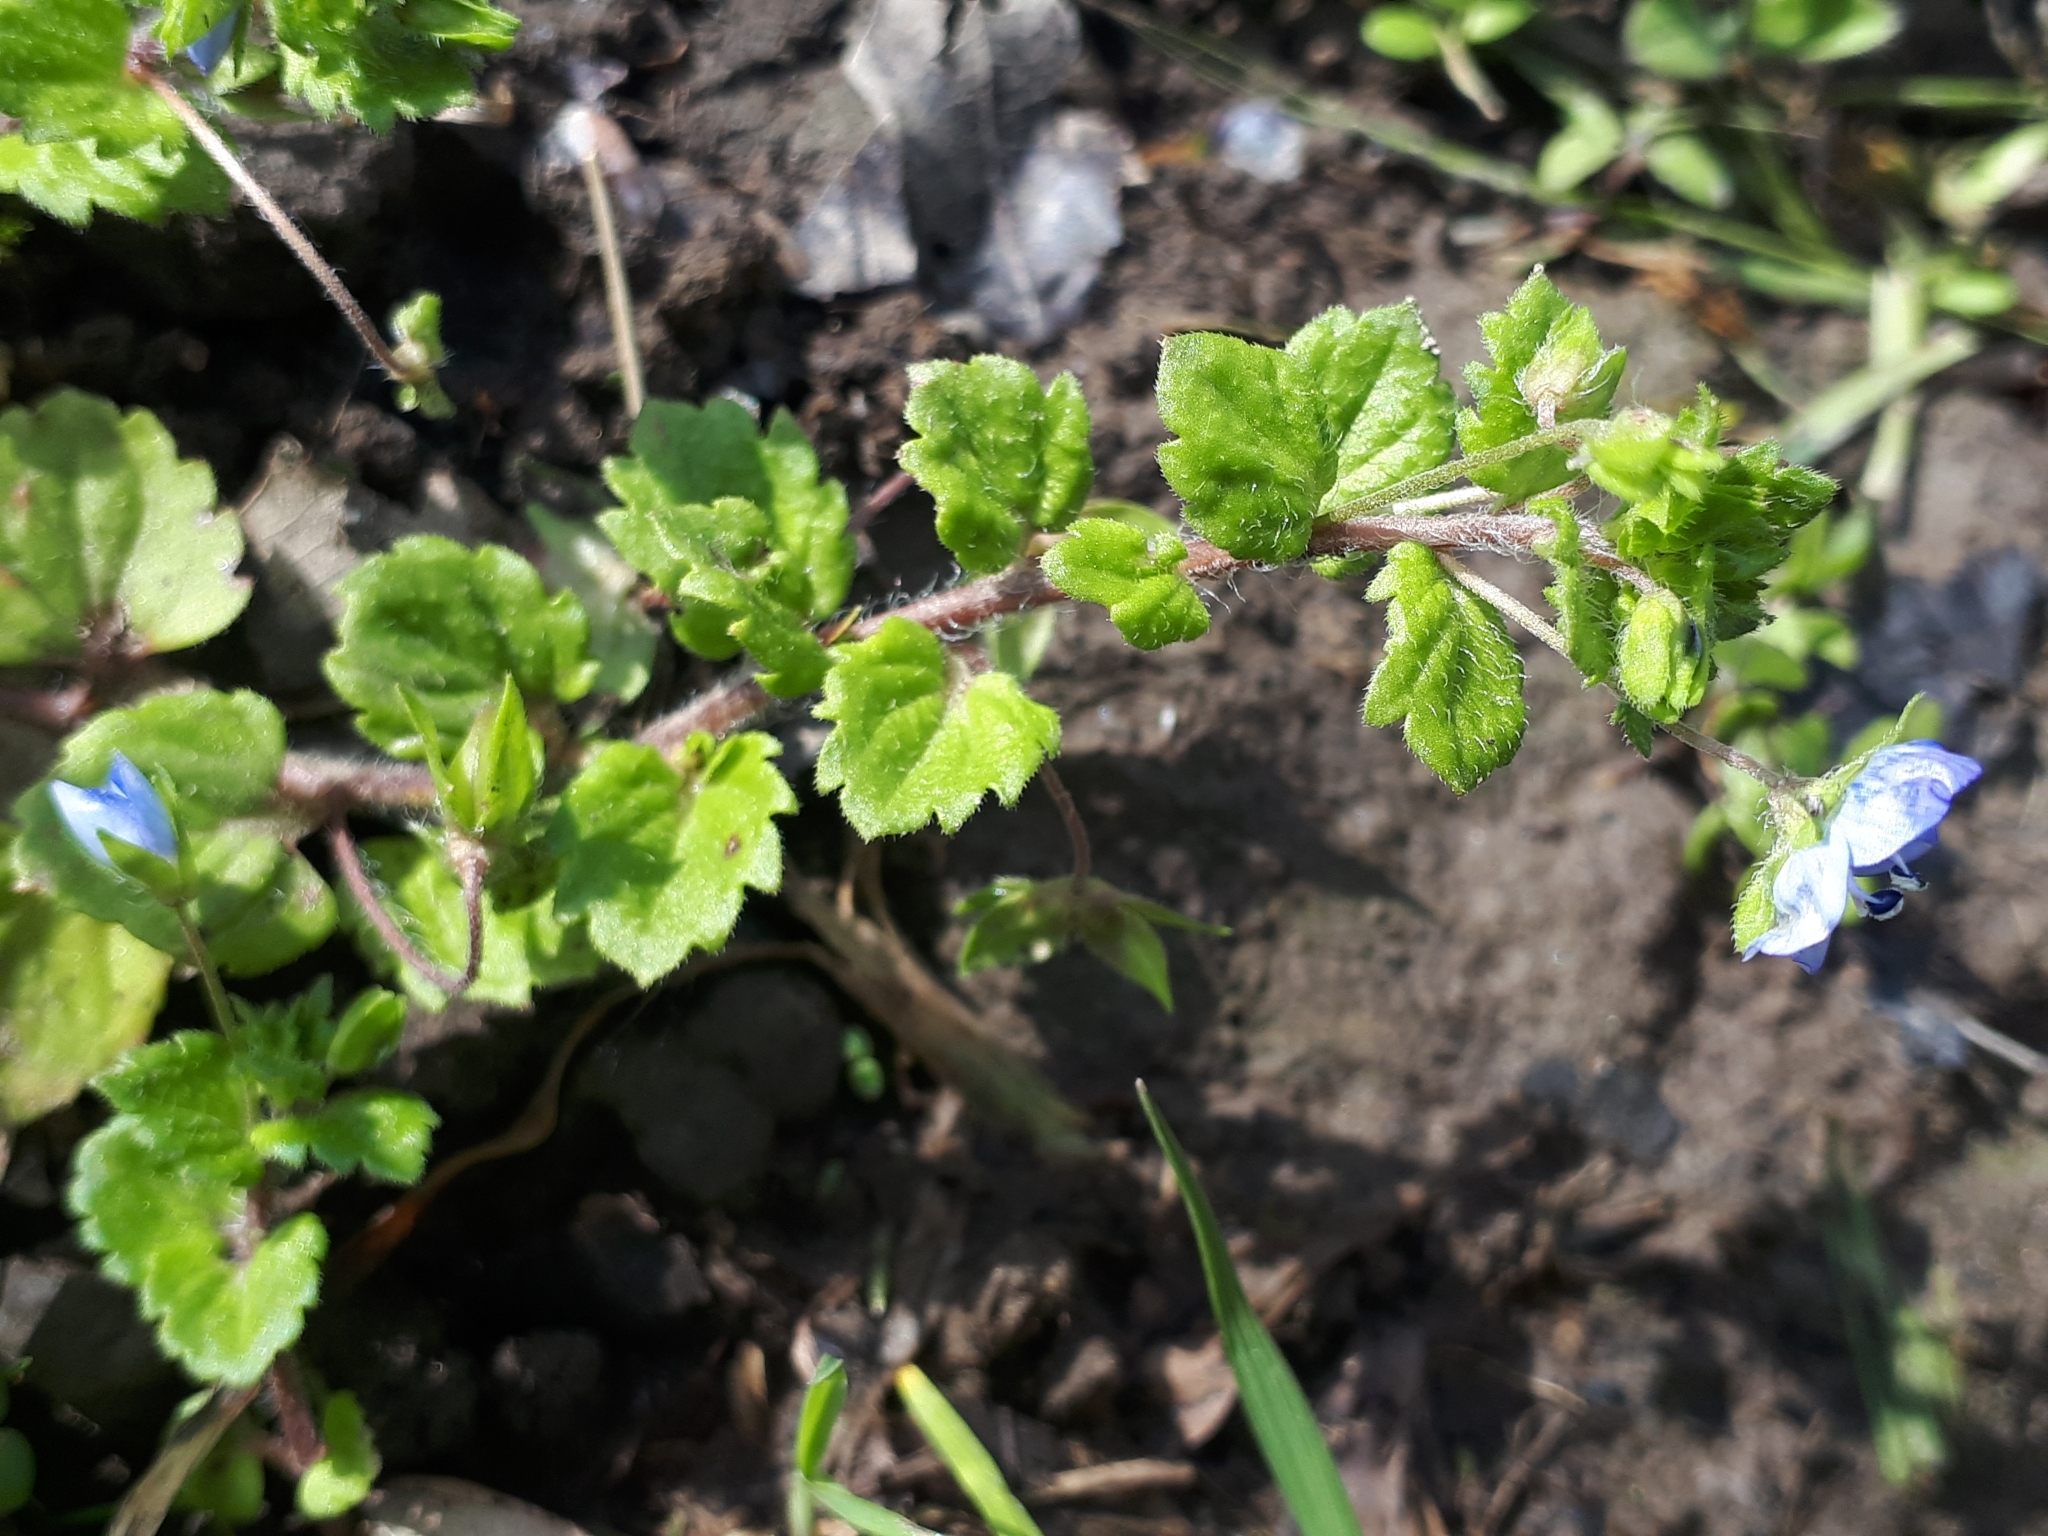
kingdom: Plantae
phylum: Tracheophyta
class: Magnoliopsida
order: Lamiales
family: Plantaginaceae
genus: Veronica
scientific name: Veronica persica
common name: Common field-speedwell
